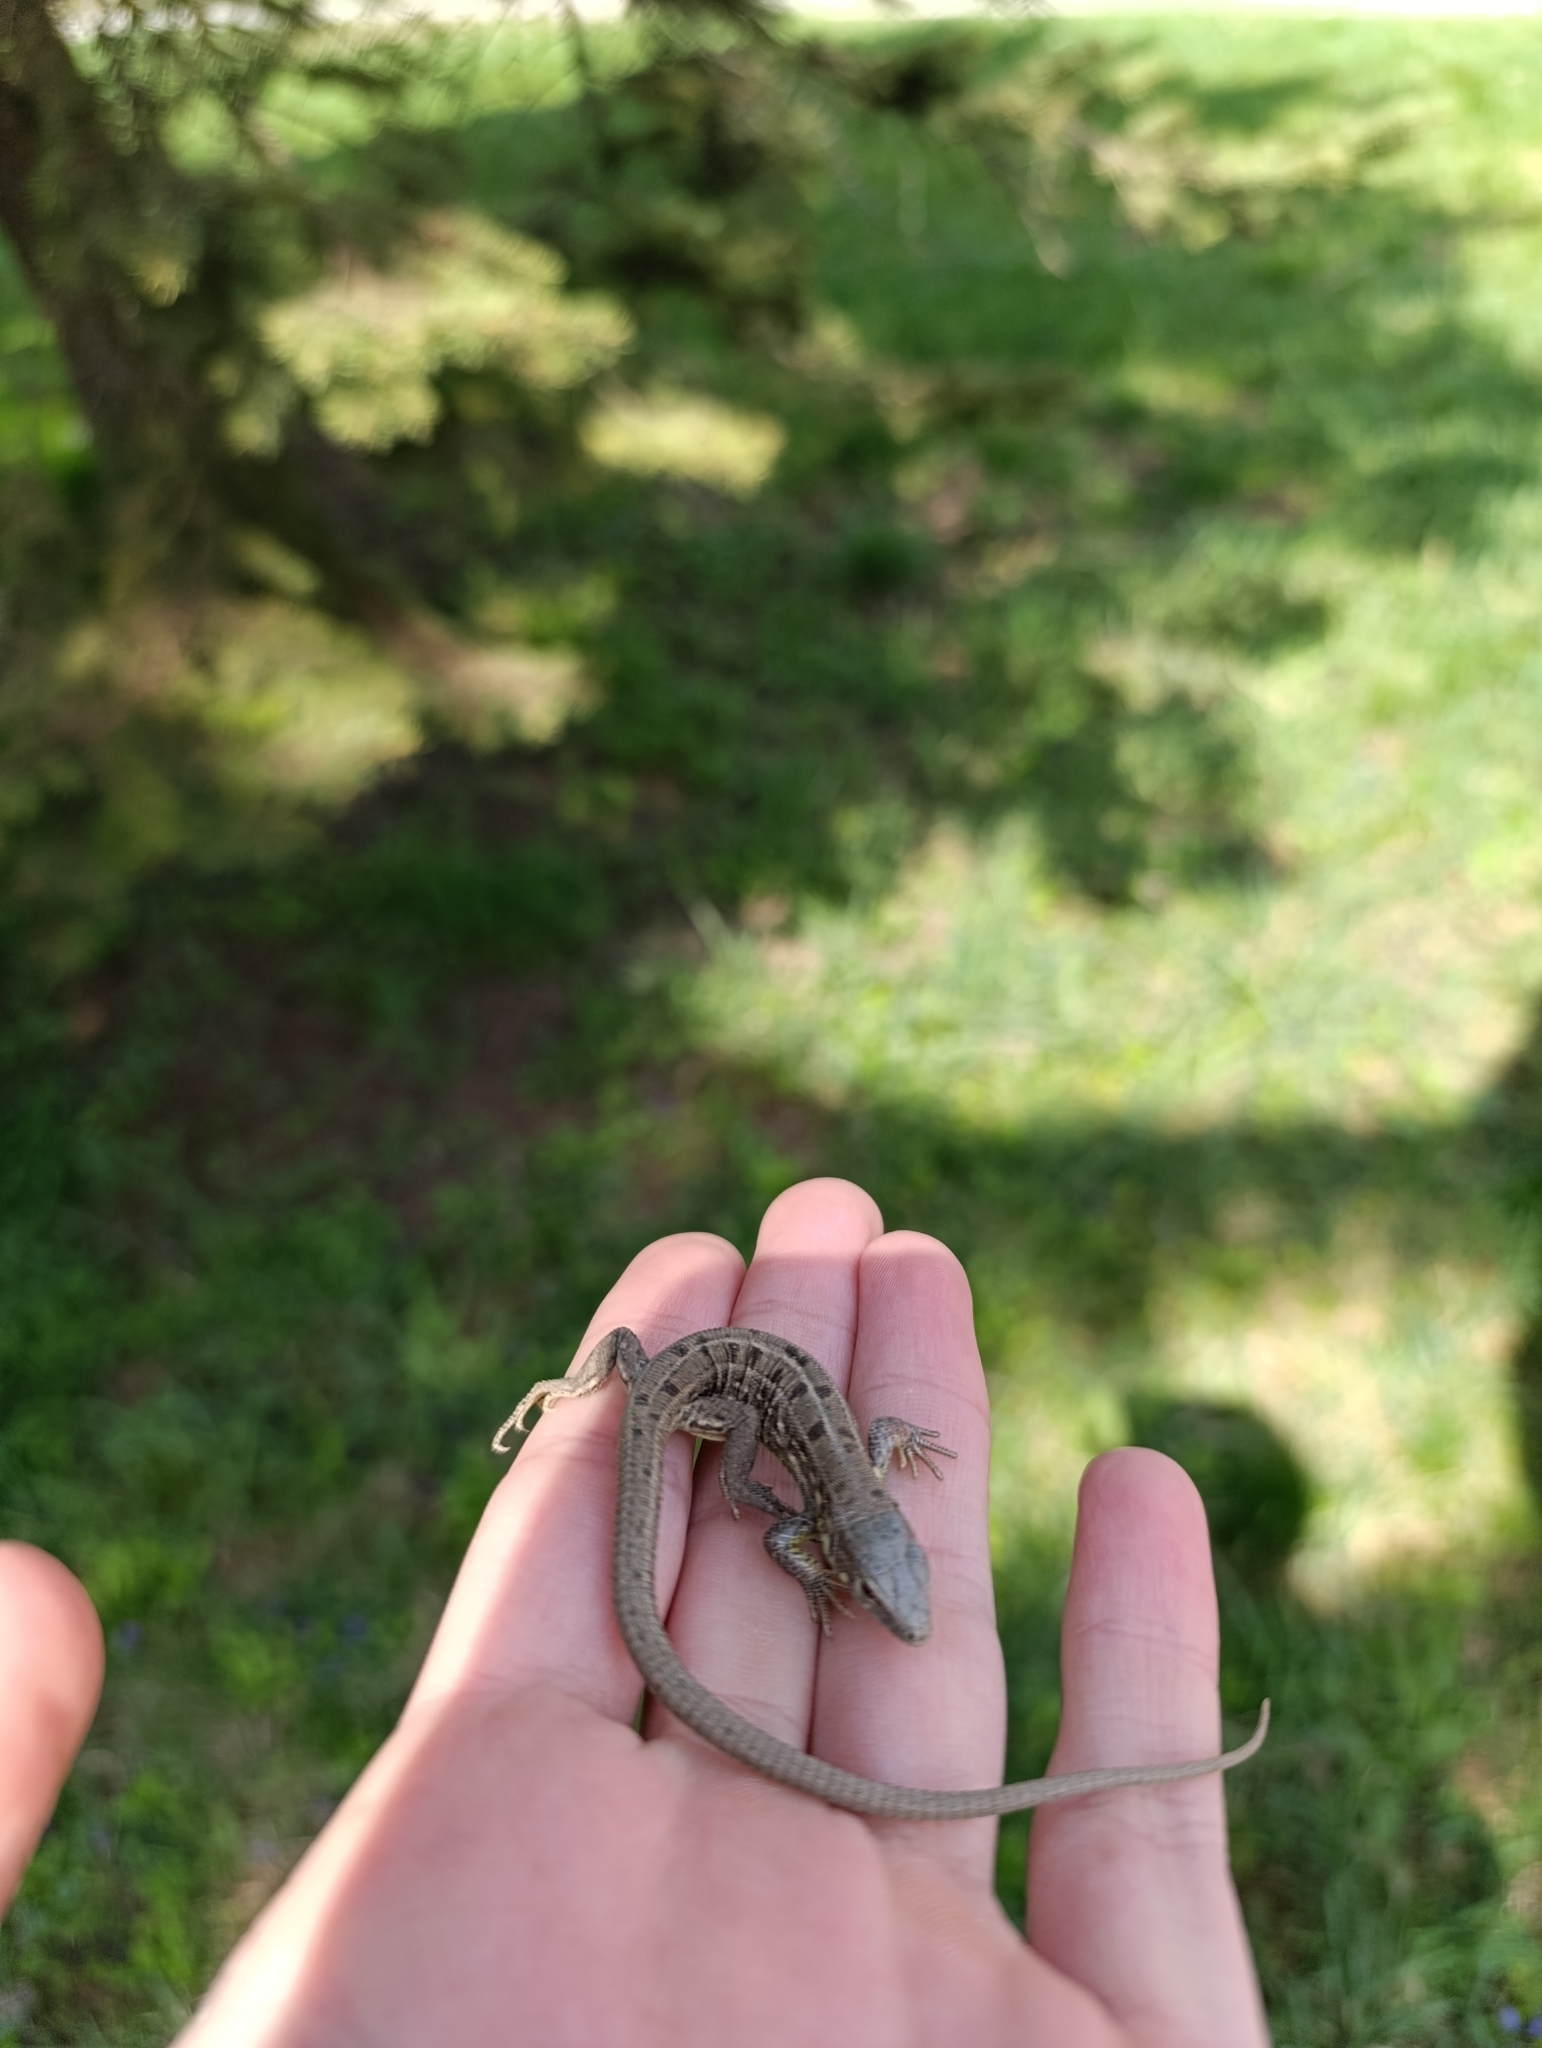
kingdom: Animalia
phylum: Chordata
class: Squamata
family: Lacertidae
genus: Lacerta
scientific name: Lacerta agilis
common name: Sand lizard
